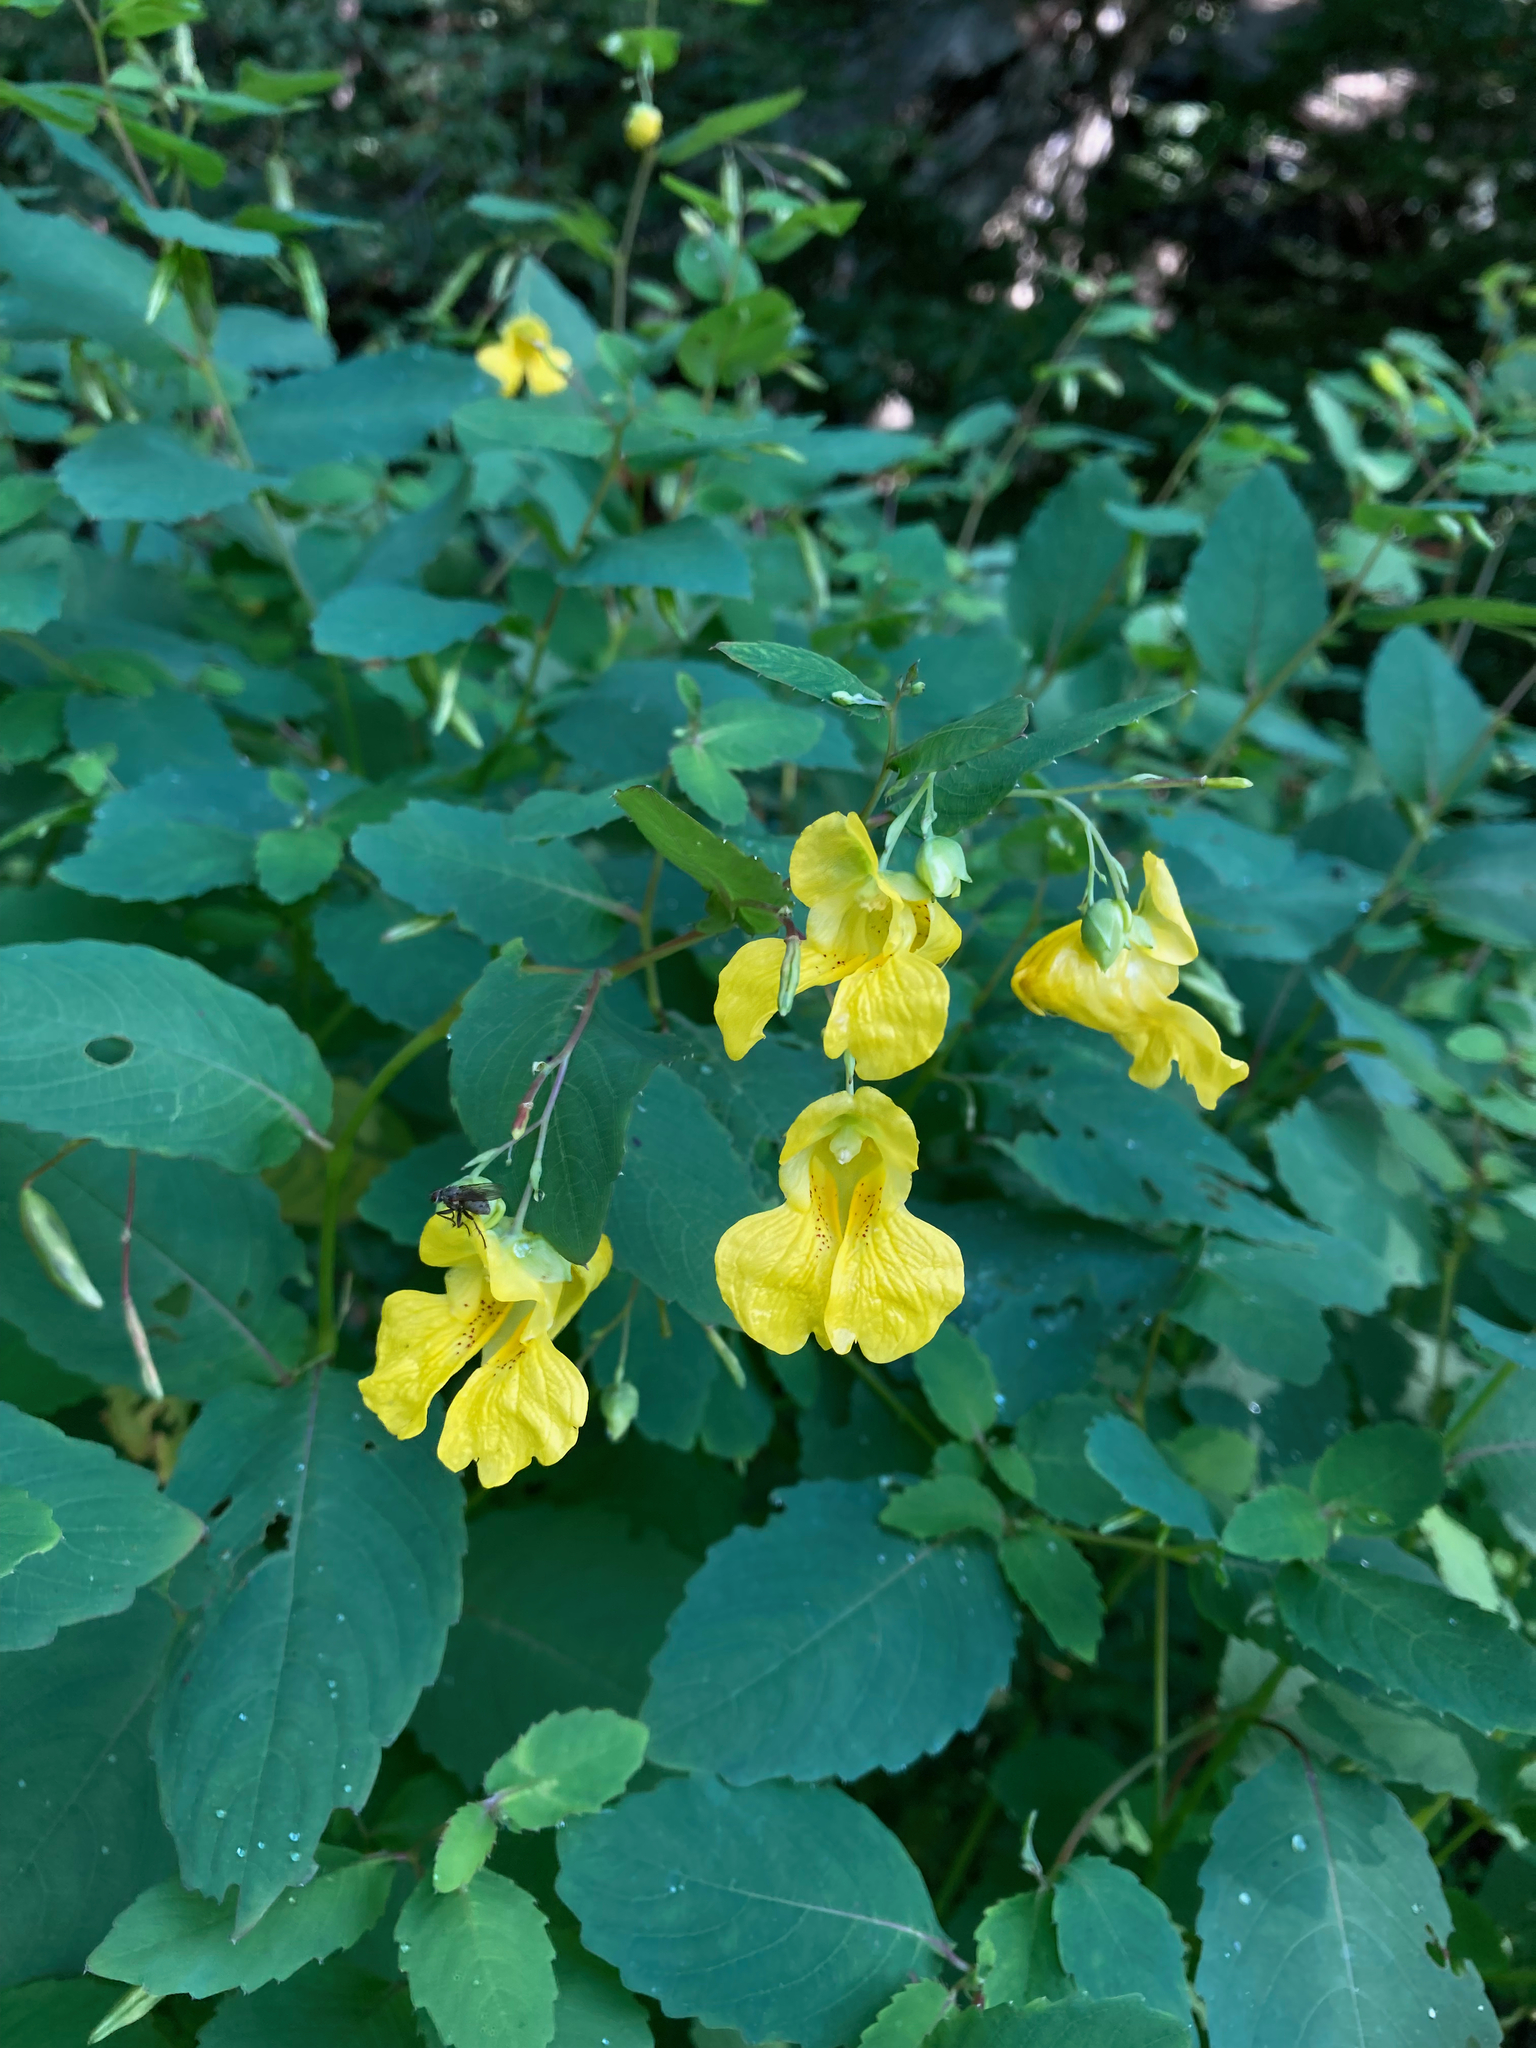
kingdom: Plantae
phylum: Tracheophyta
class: Magnoliopsida
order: Ericales
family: Balsaminaceae
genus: Impatiens
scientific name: Impatiens pallida
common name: Pale snapweed
